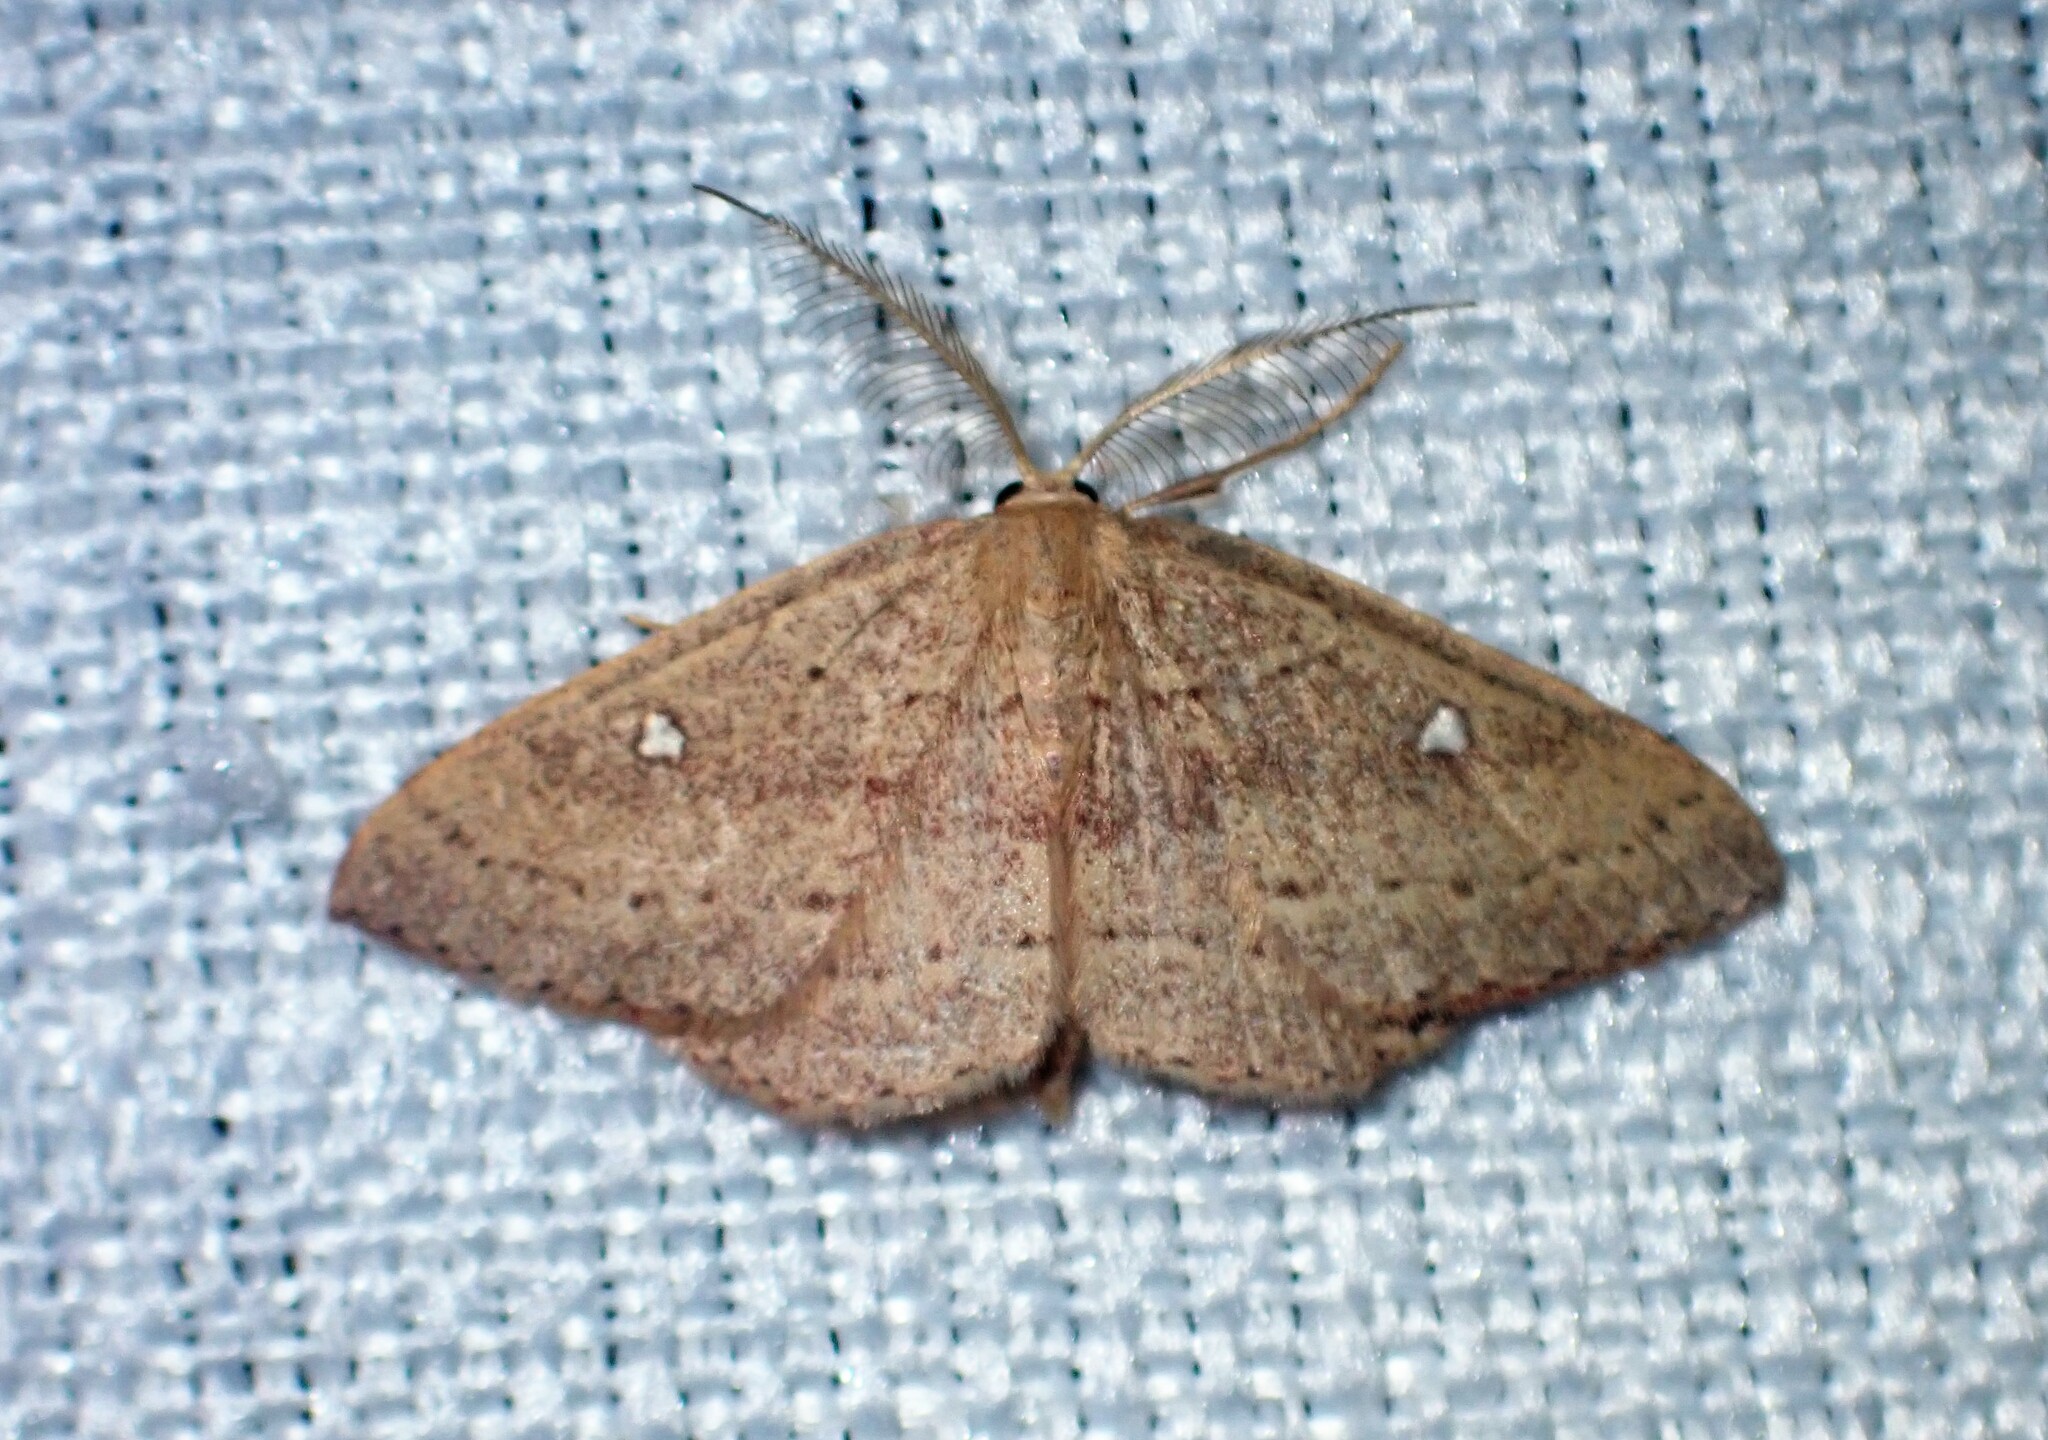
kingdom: Animalia
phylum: Arthropoda
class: Insecta
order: Lepidoptera
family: Geometridae
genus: Cyclophora
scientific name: Cyclophora azorensis
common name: Geometer moth
